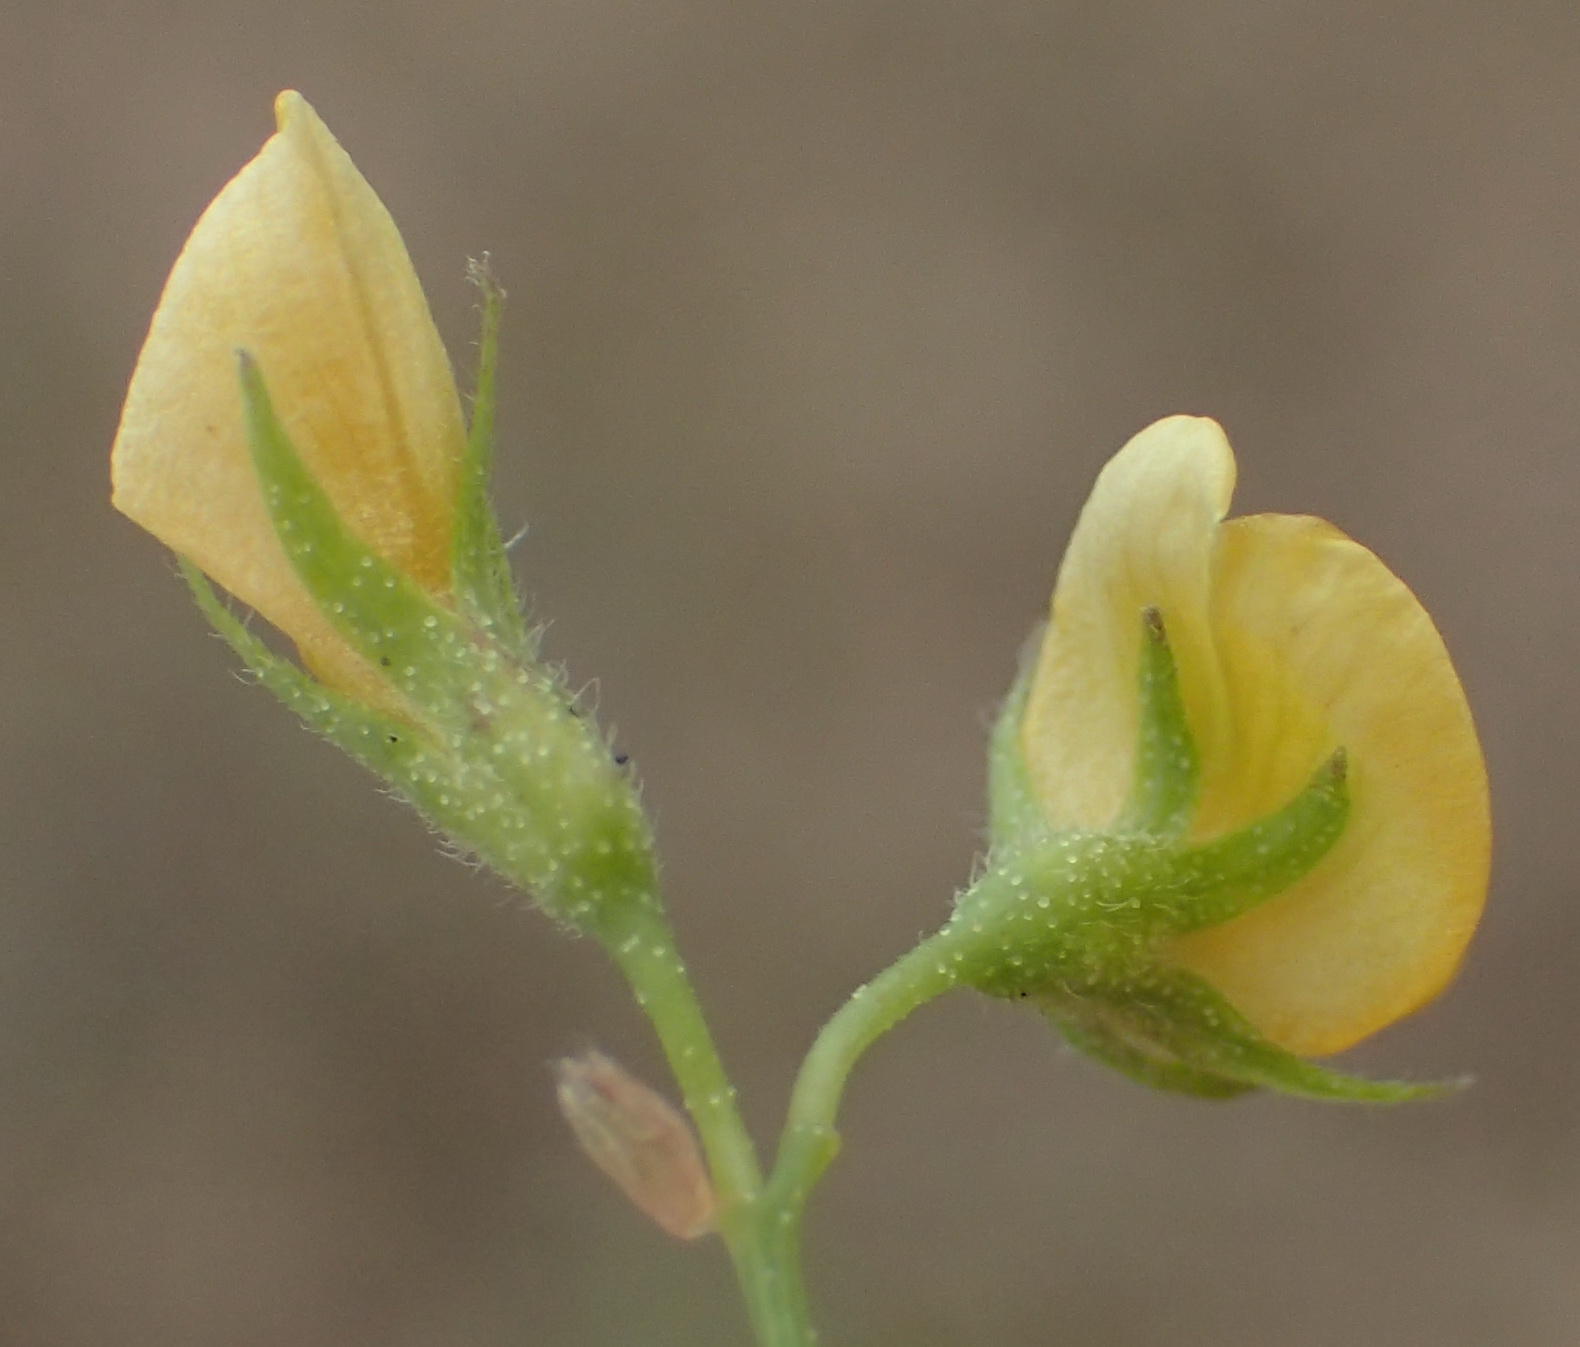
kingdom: Plantae
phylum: Tracheophyta
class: Magnoliopsida
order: Fabales
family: Fabaceae
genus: Rhynchosia
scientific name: Rhynchosia totta
